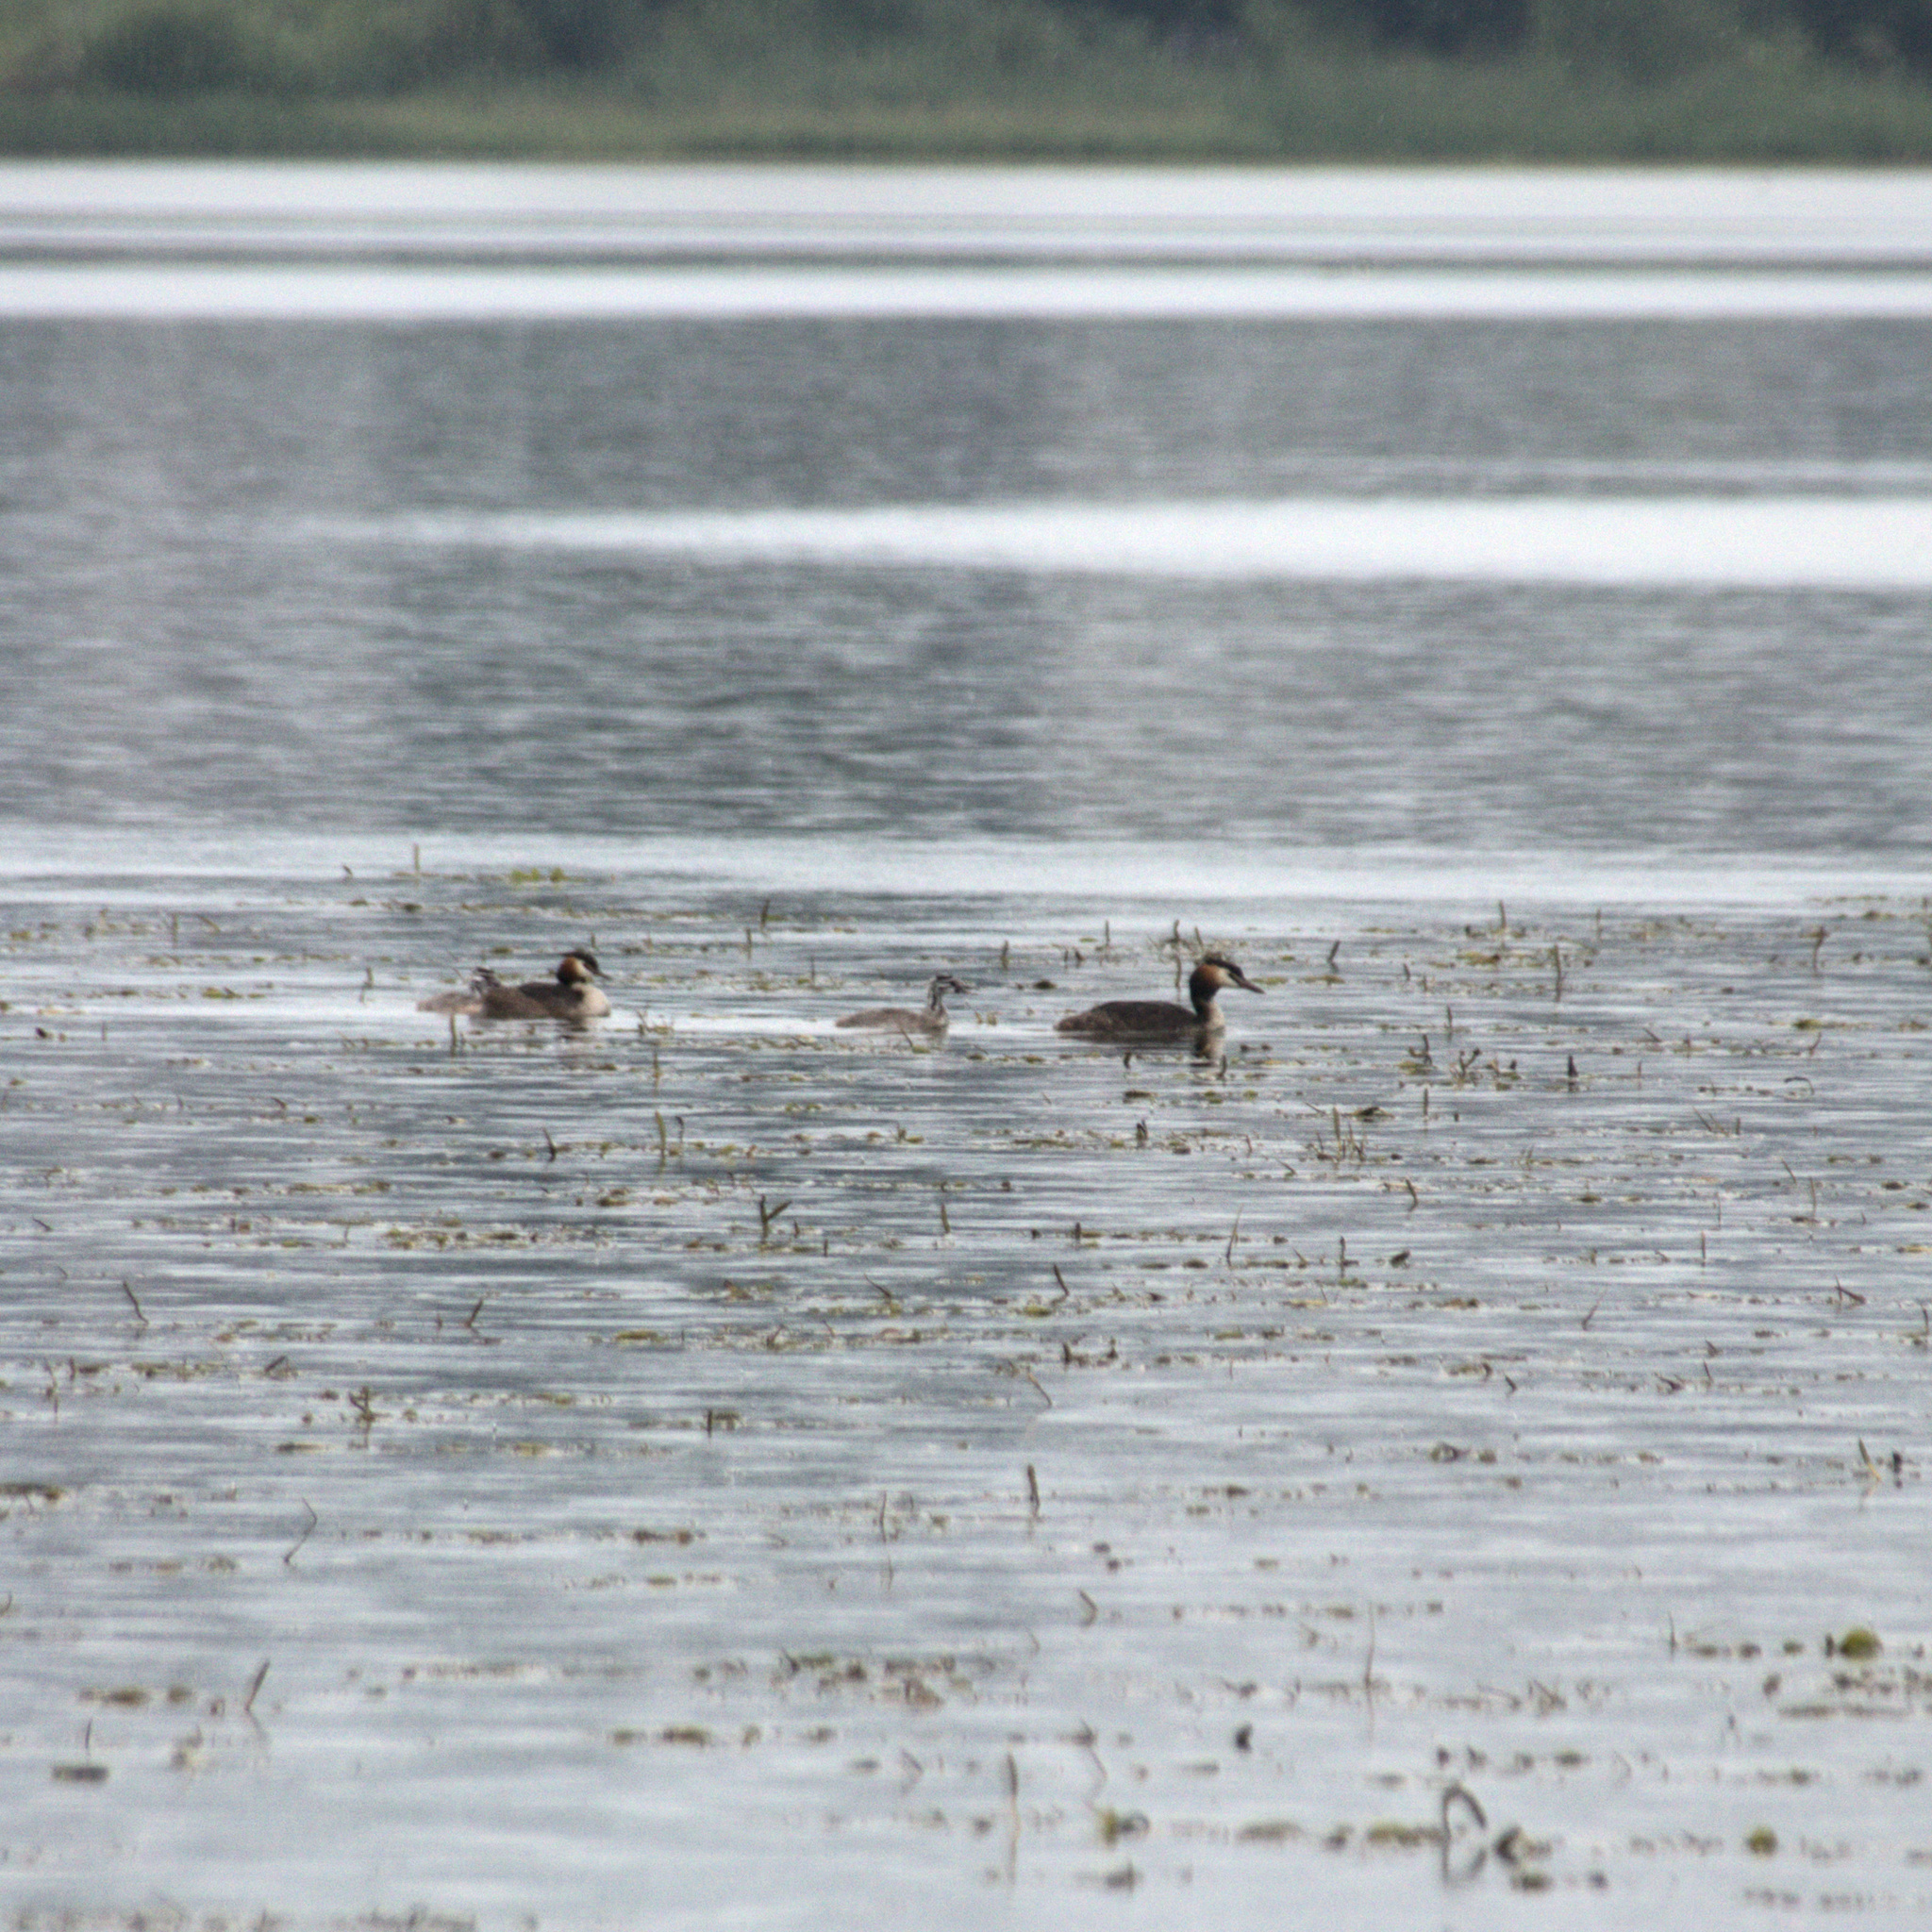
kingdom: Animalia
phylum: Chordata
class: Aves
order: Podicipediformes
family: Podicipedidae
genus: Podiceps
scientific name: Podiceps cristatus
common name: Great crested grebe
